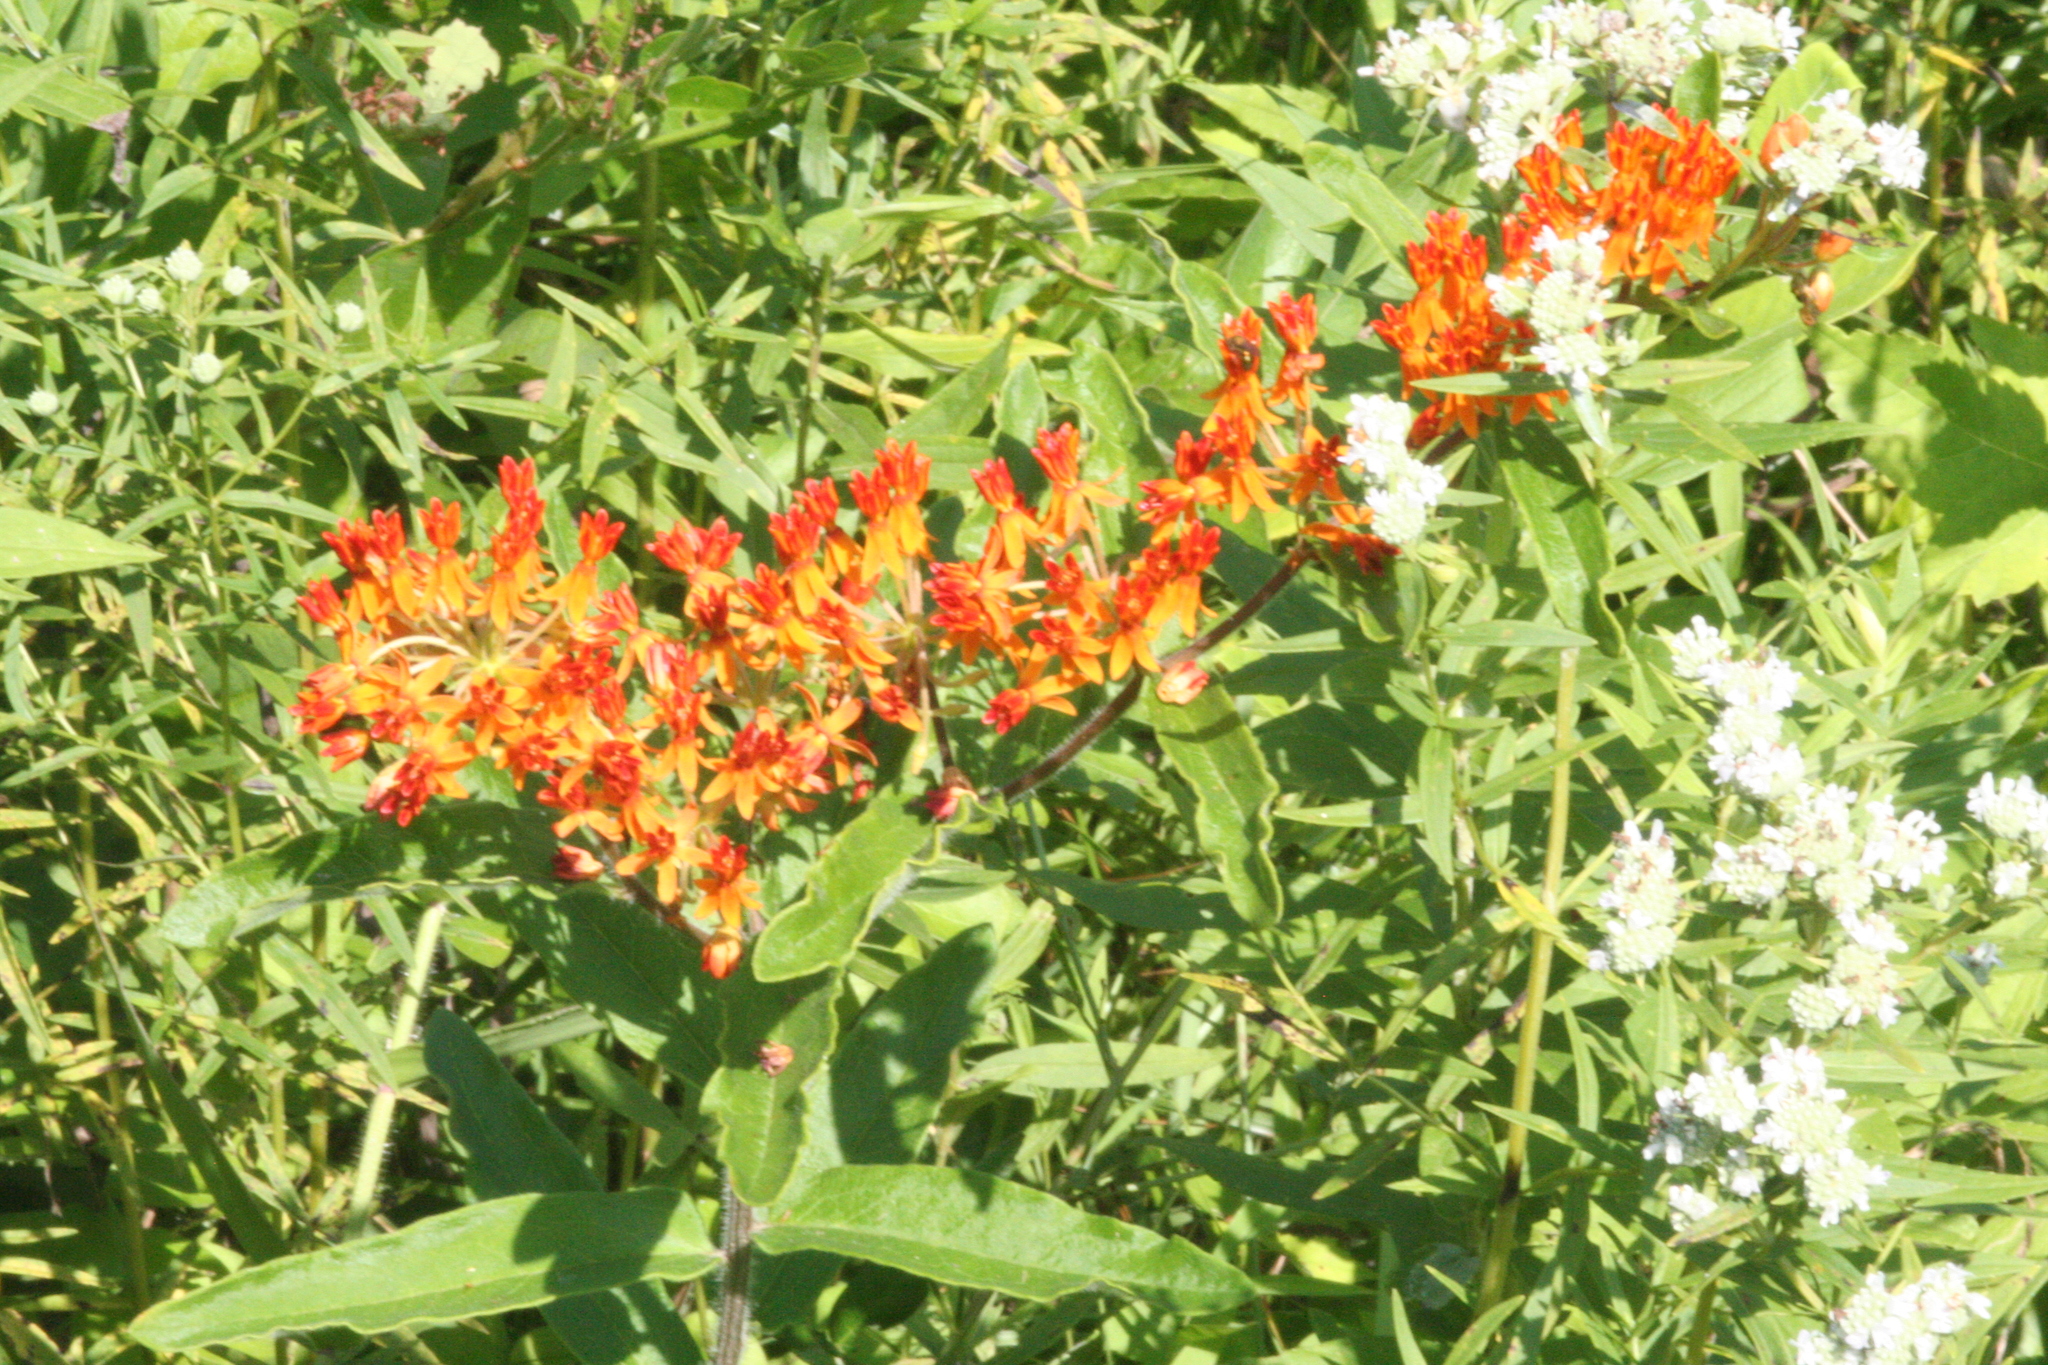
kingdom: Plantae
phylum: Tracheophyta
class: Magnoliopsida
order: Gentianales
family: Apocynaceae
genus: Asclepias
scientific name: Asclepias tuberosa
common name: Butterfly milkweed
